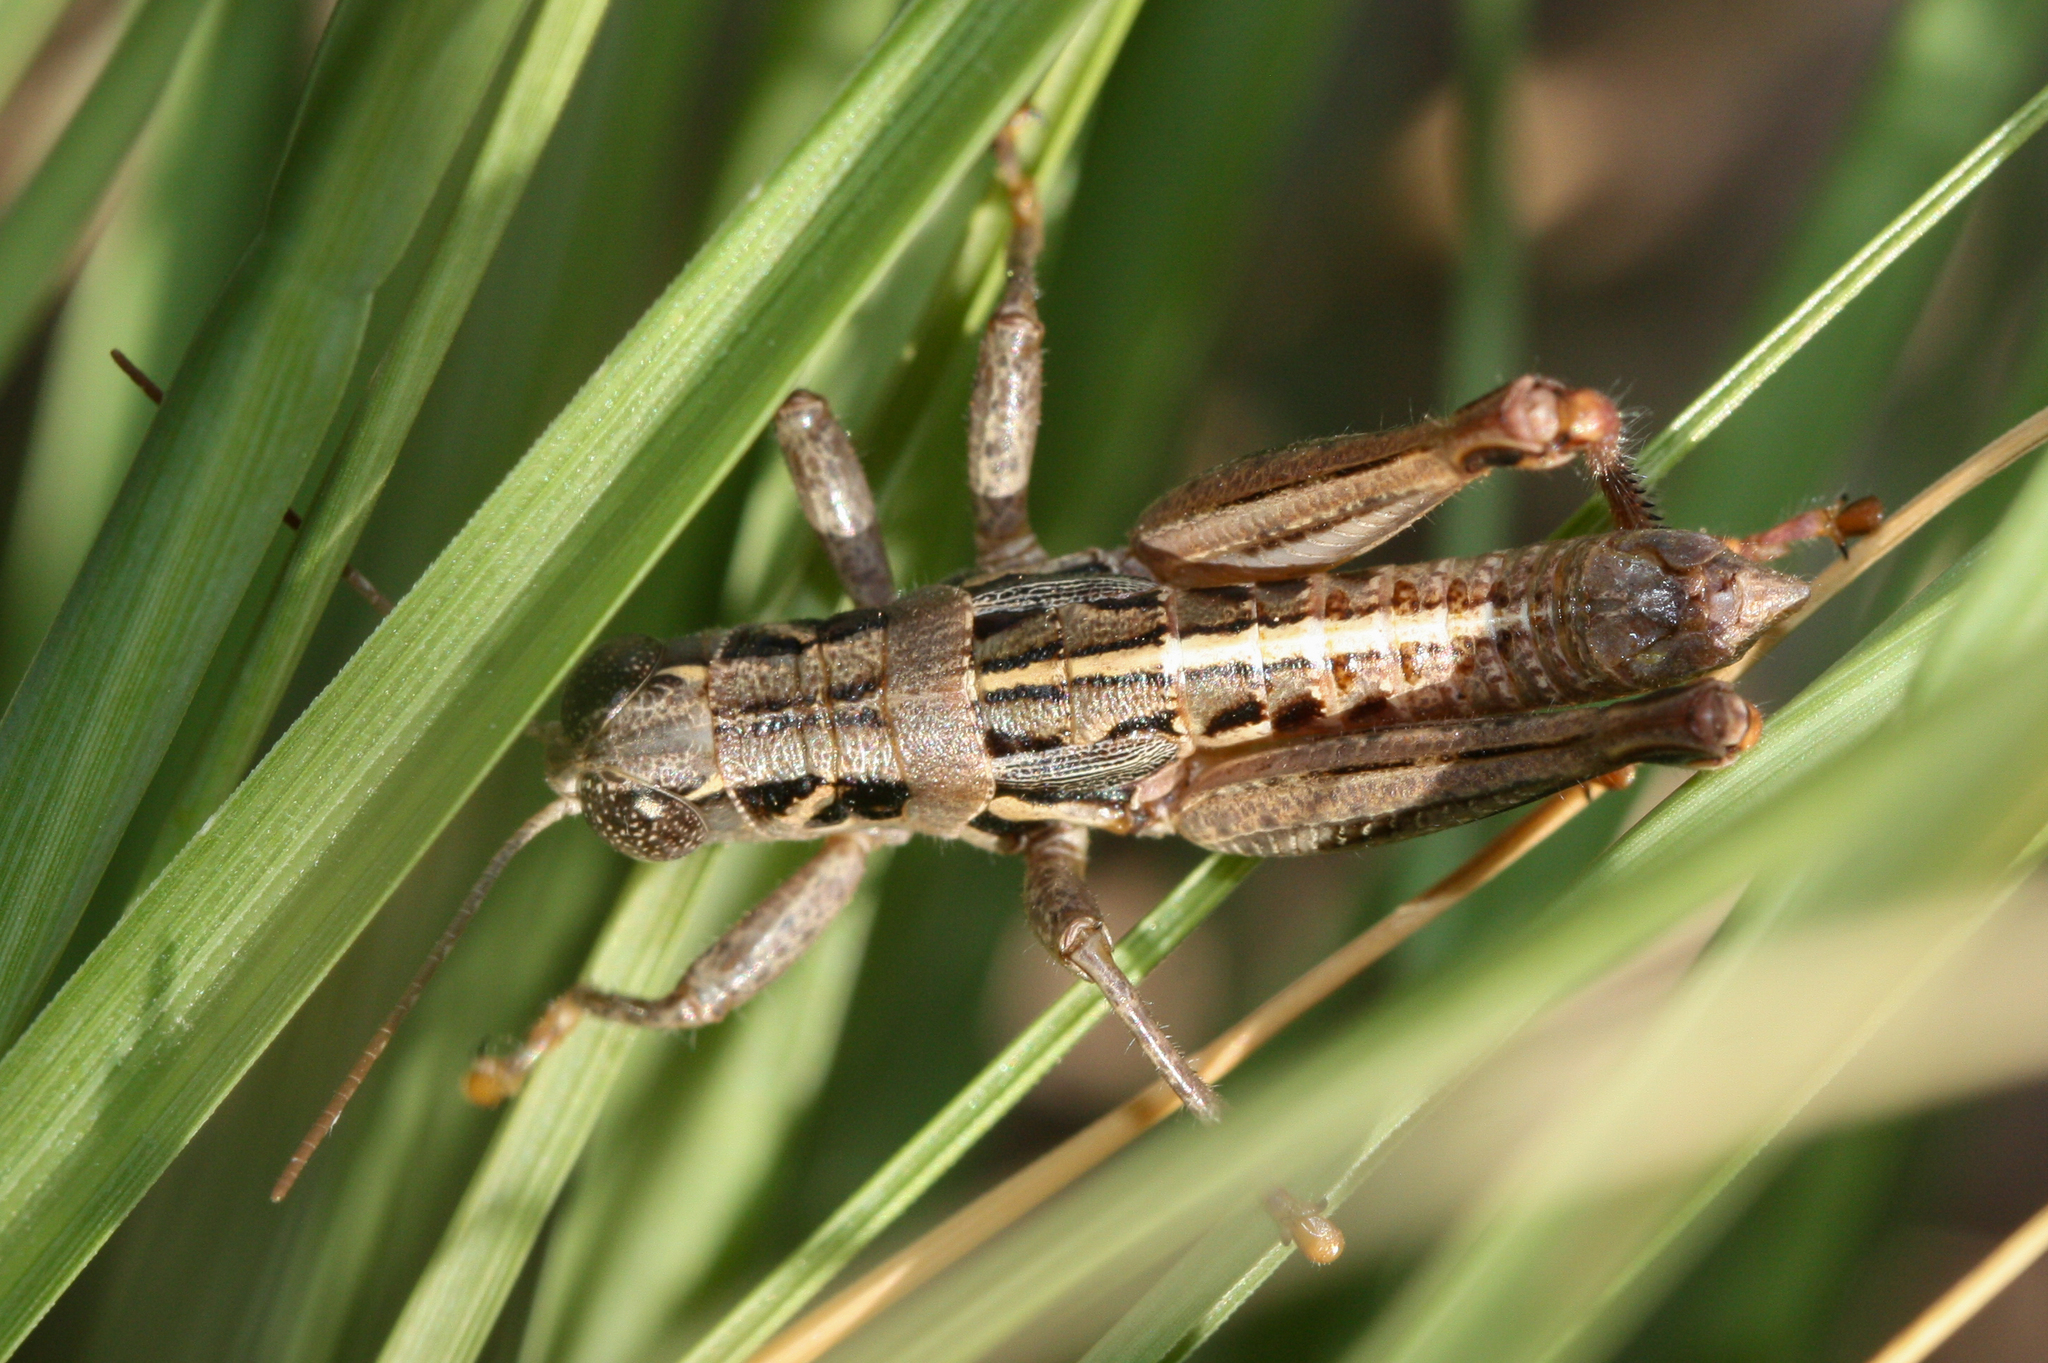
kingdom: Animalia
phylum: Arthropoda
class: Insecta
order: Orthoptera
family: Acrididae
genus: Barytettix
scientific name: Barytettix humphreysii
